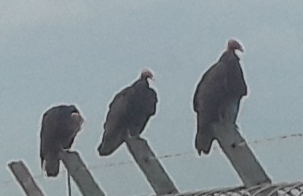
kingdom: Animalia
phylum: Chordata
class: Aves
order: Accipitriformes
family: Cathartidae
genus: Cathartes
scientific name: Cathartes aura
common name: Turkey vulture
